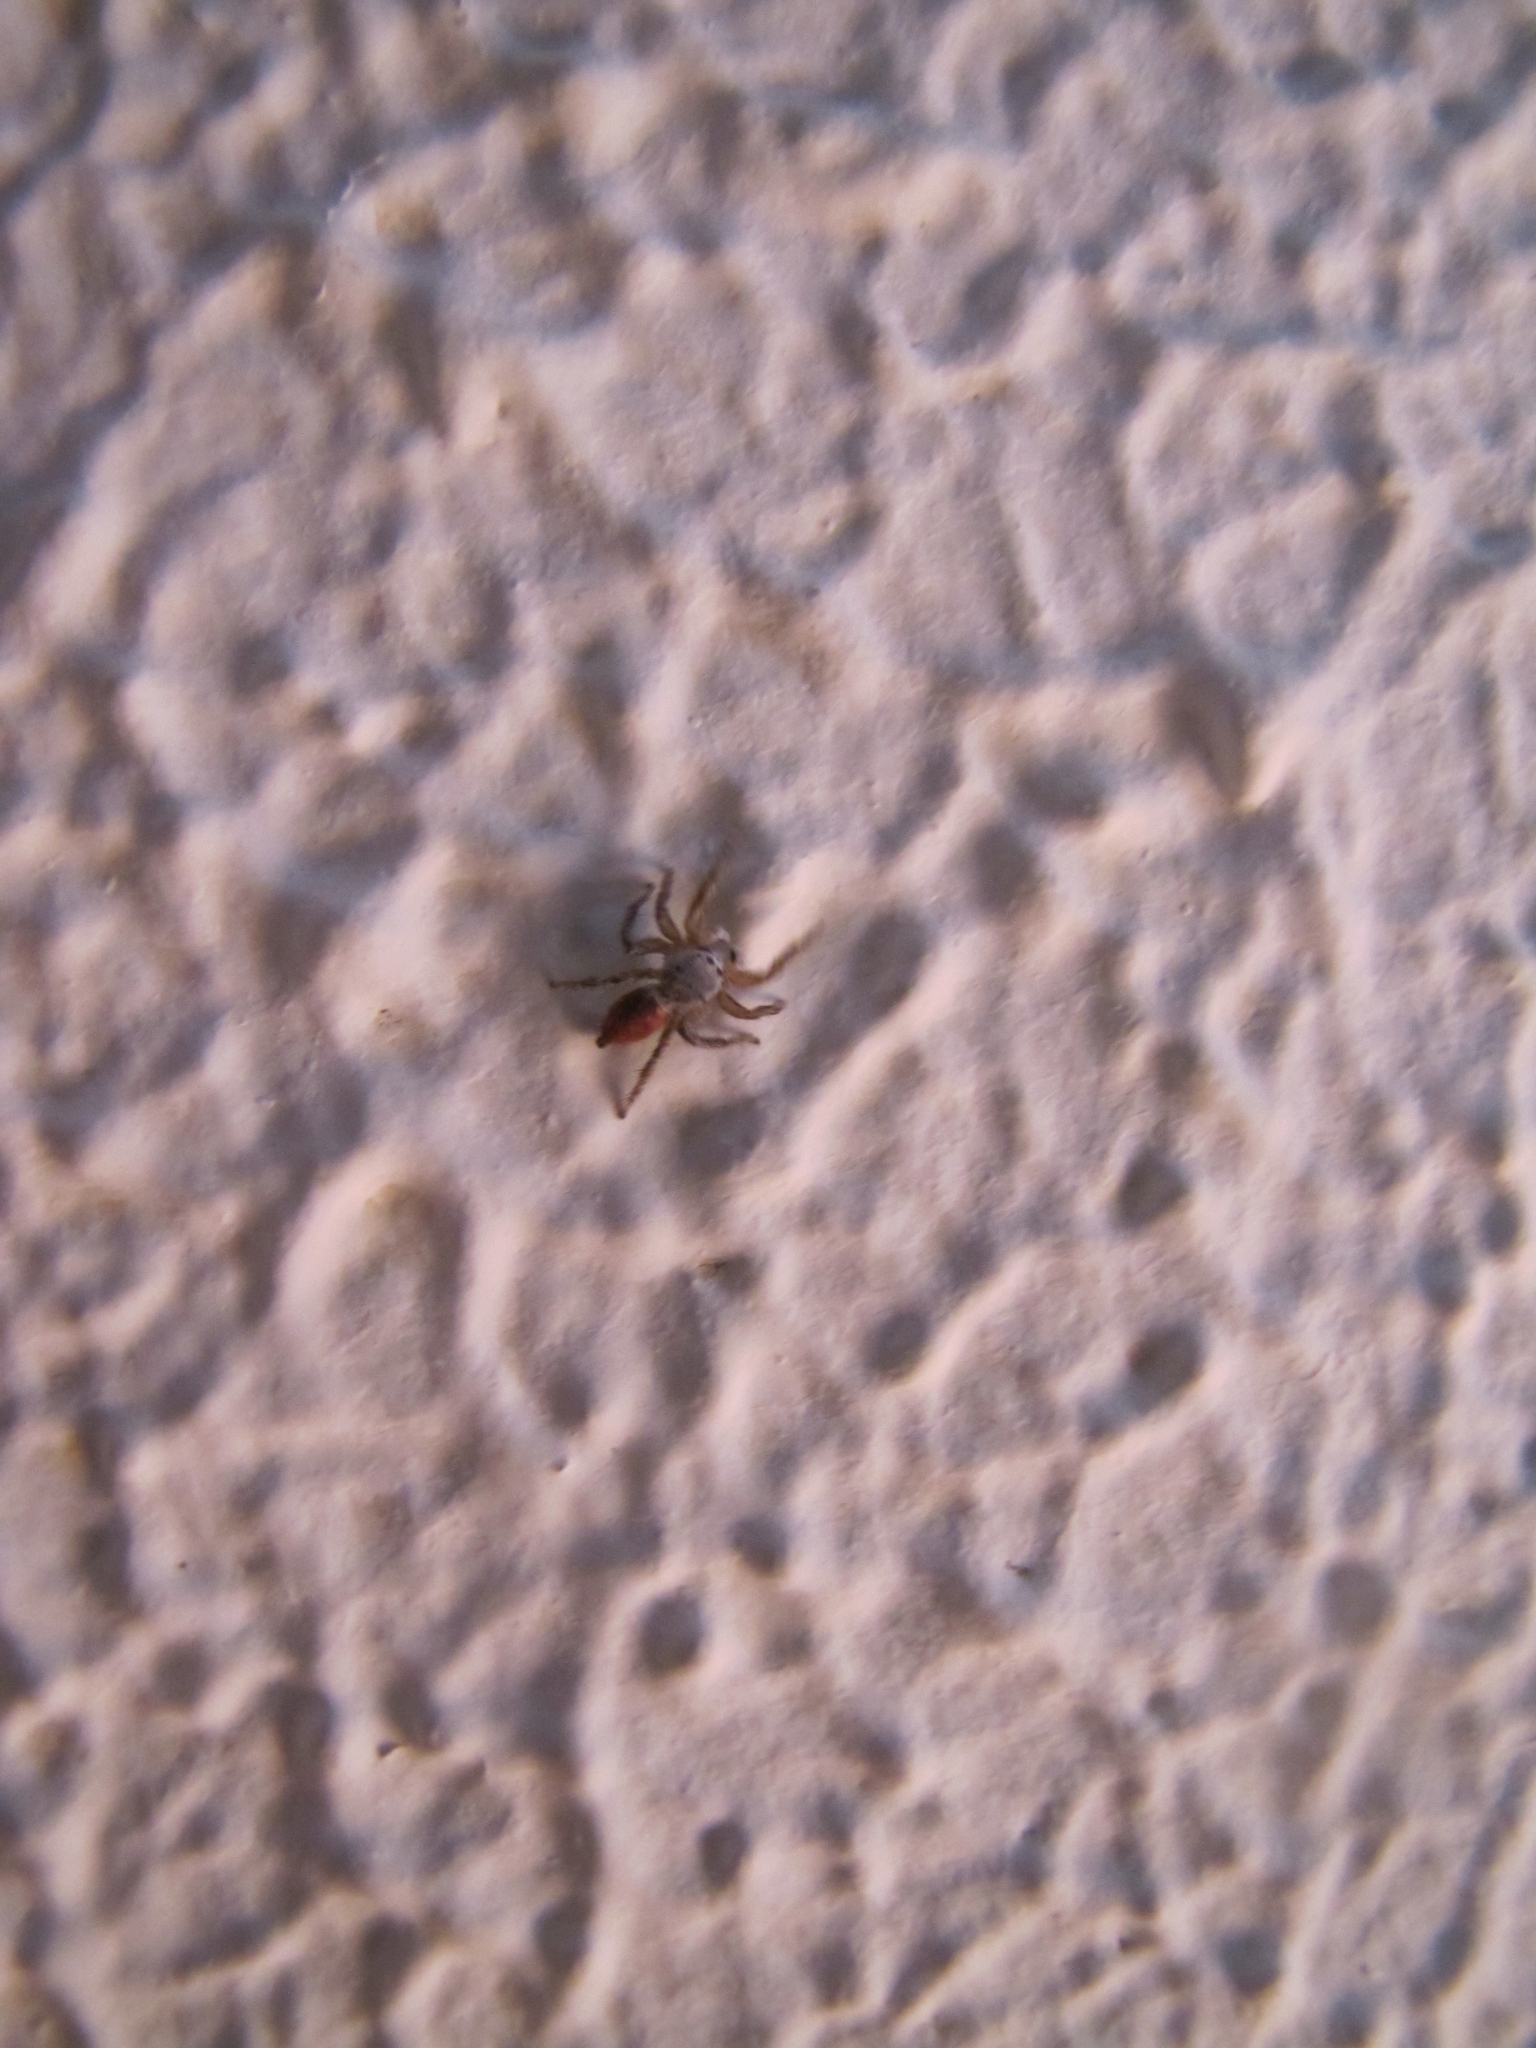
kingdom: Animalia
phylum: Arthropoda
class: Arachnida
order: Araneae
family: Salticidae
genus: Habronattus
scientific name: Habronattus decorus
